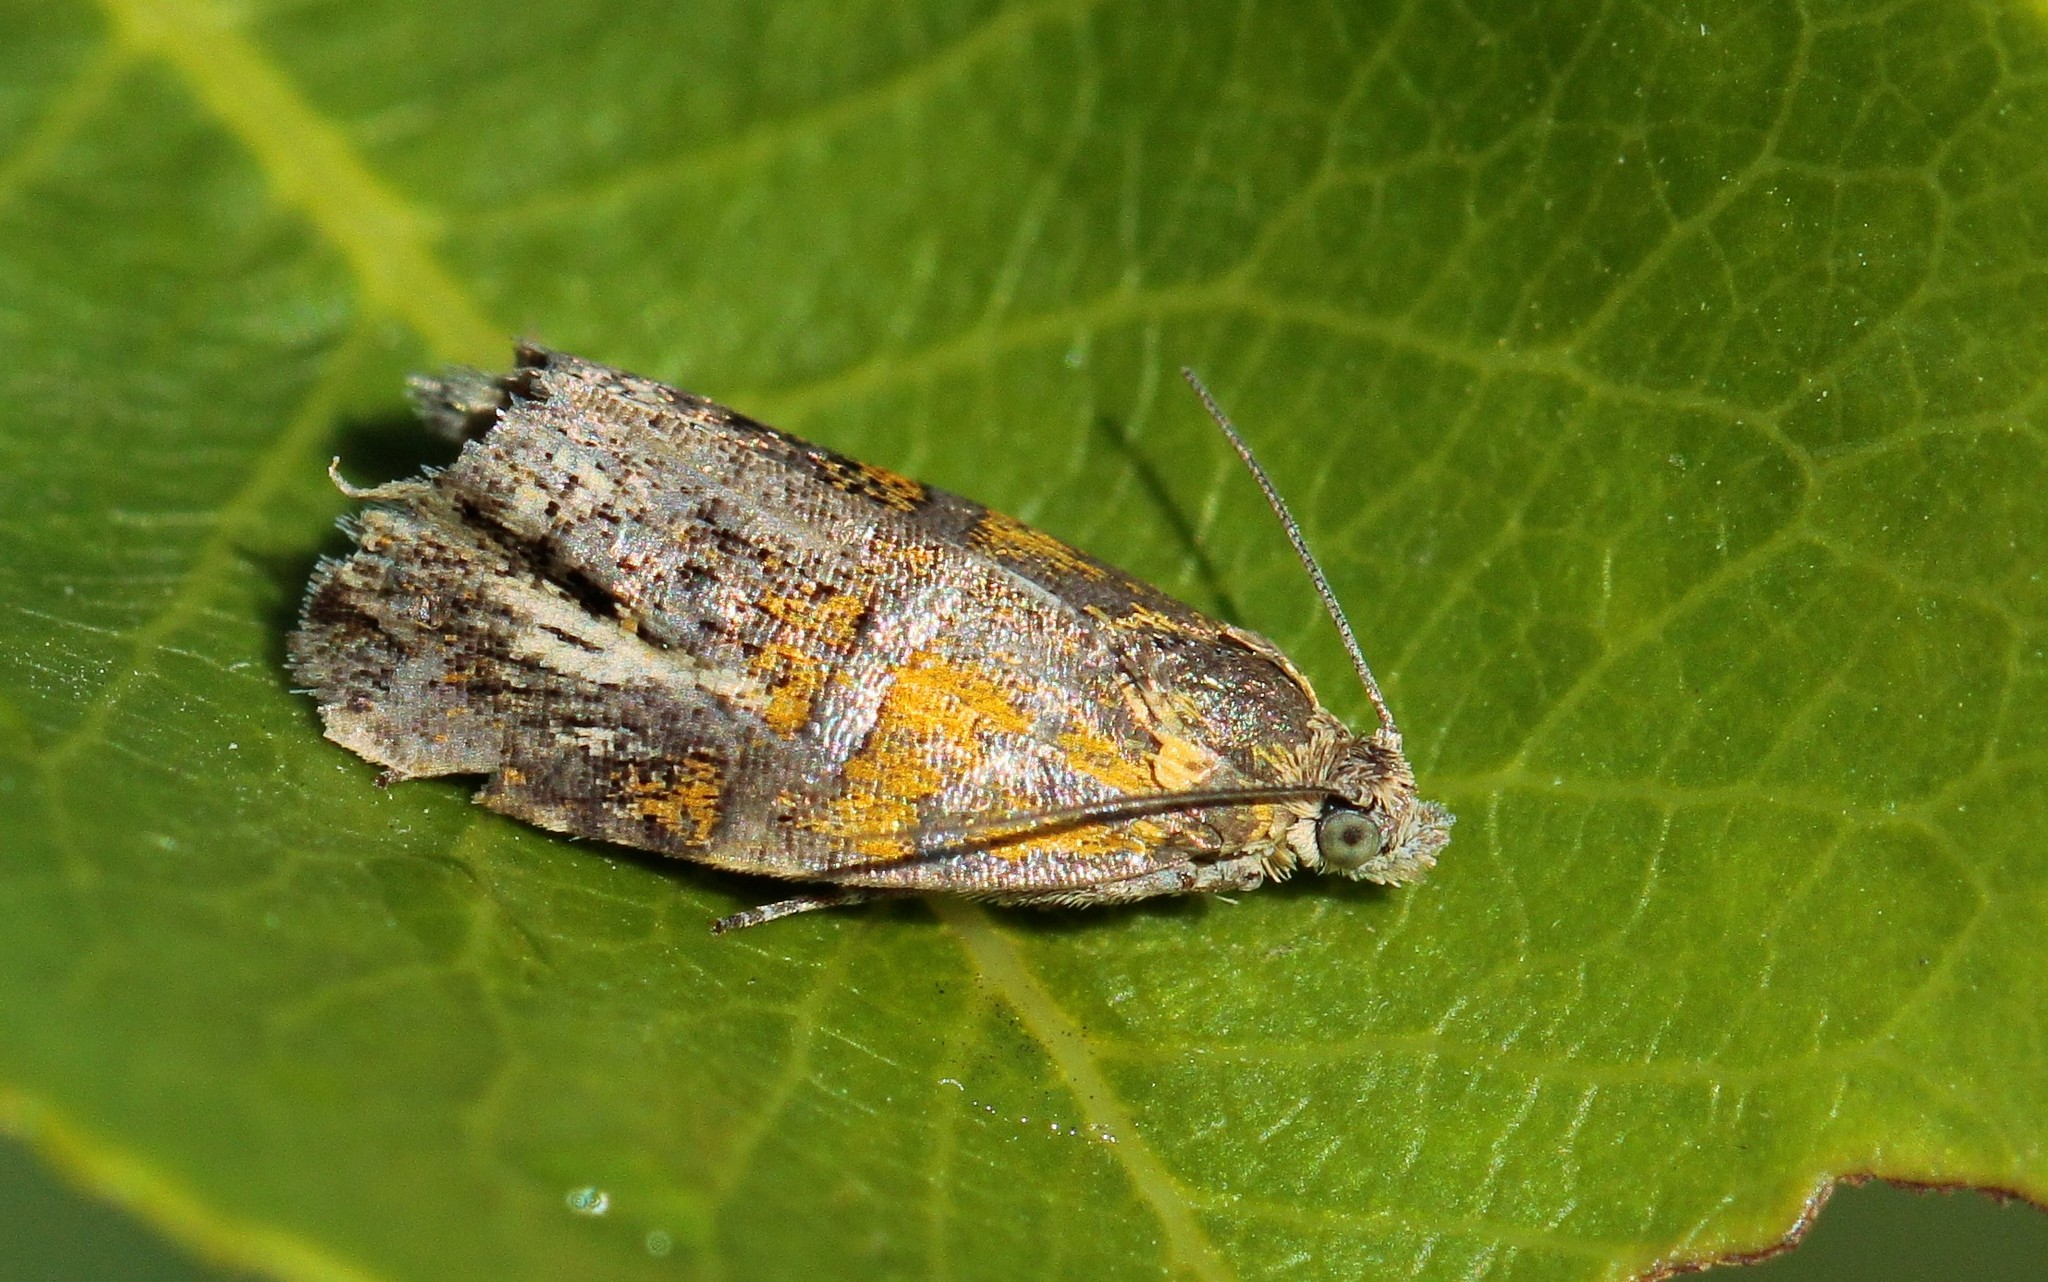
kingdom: Animalia
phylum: Arthropoda
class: Insecta
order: Lepidoptera
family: Tortricidae
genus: Olethreutes
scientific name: Olethreutes arcuella
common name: Arched marble
